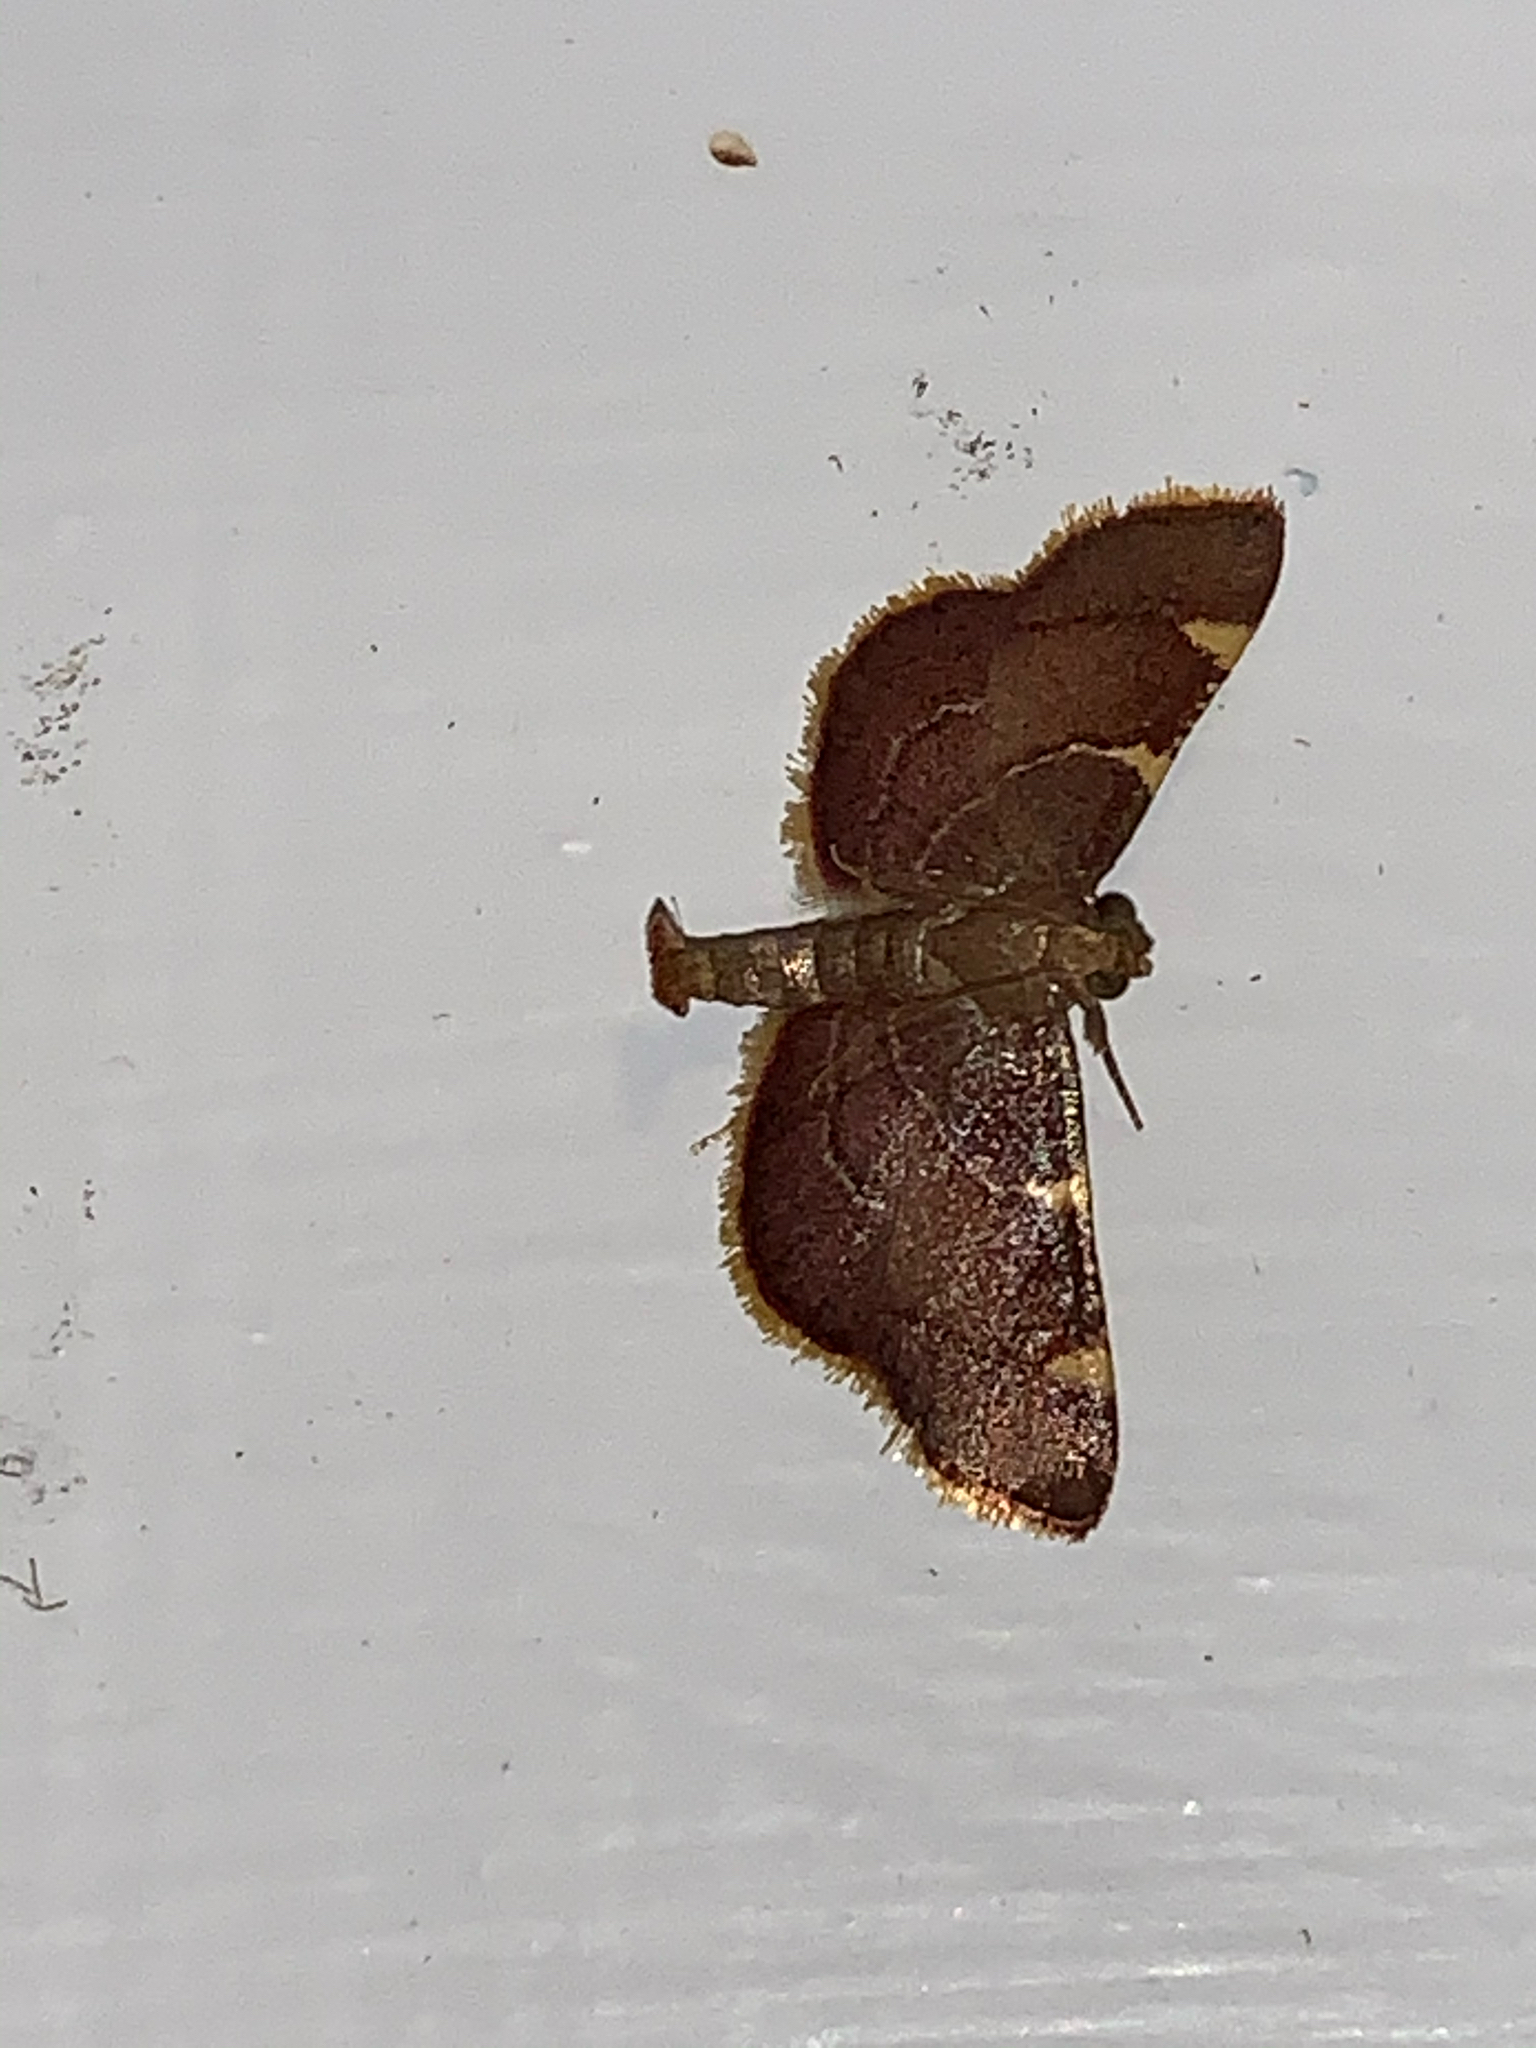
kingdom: Animalia
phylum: Arthropoda
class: Insecta
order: Lepidoptera
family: Pyralidae
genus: Hypsopygia
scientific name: Hypsopygia olinalis
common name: Yellow-fringed dolichomia moth
